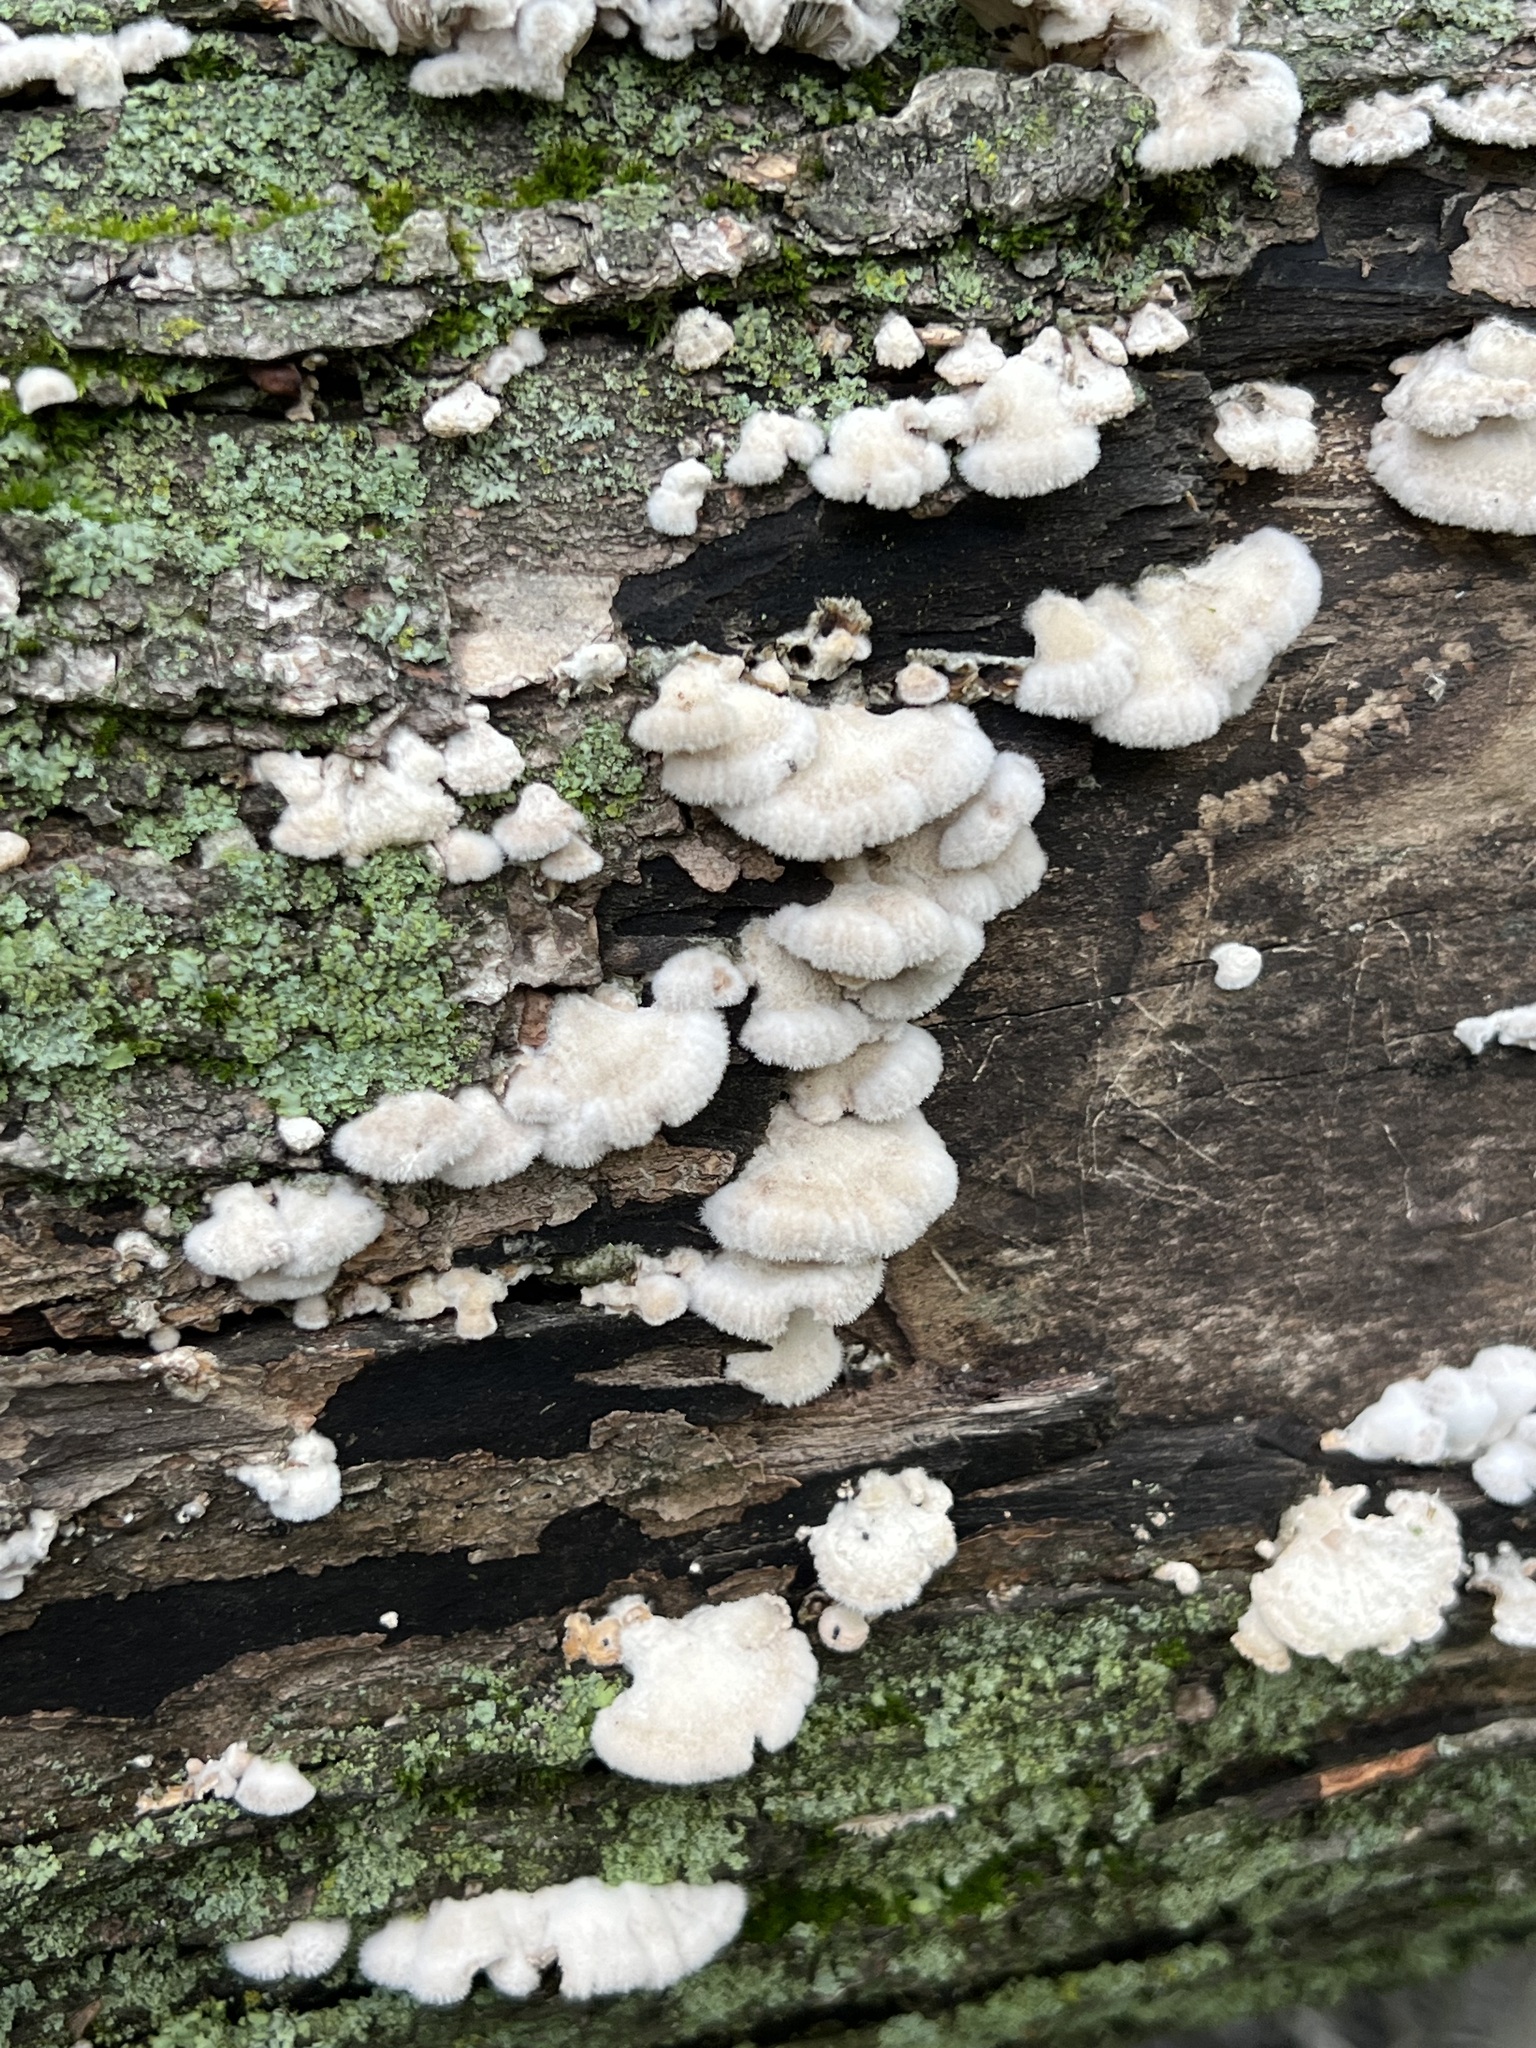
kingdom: Fungi
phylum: Basidiomycota
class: Agaricomycetes
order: Agaricales
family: Schizophyllaceae
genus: Schizophyllum
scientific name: Schizophyllum commune
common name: Common porecrust
